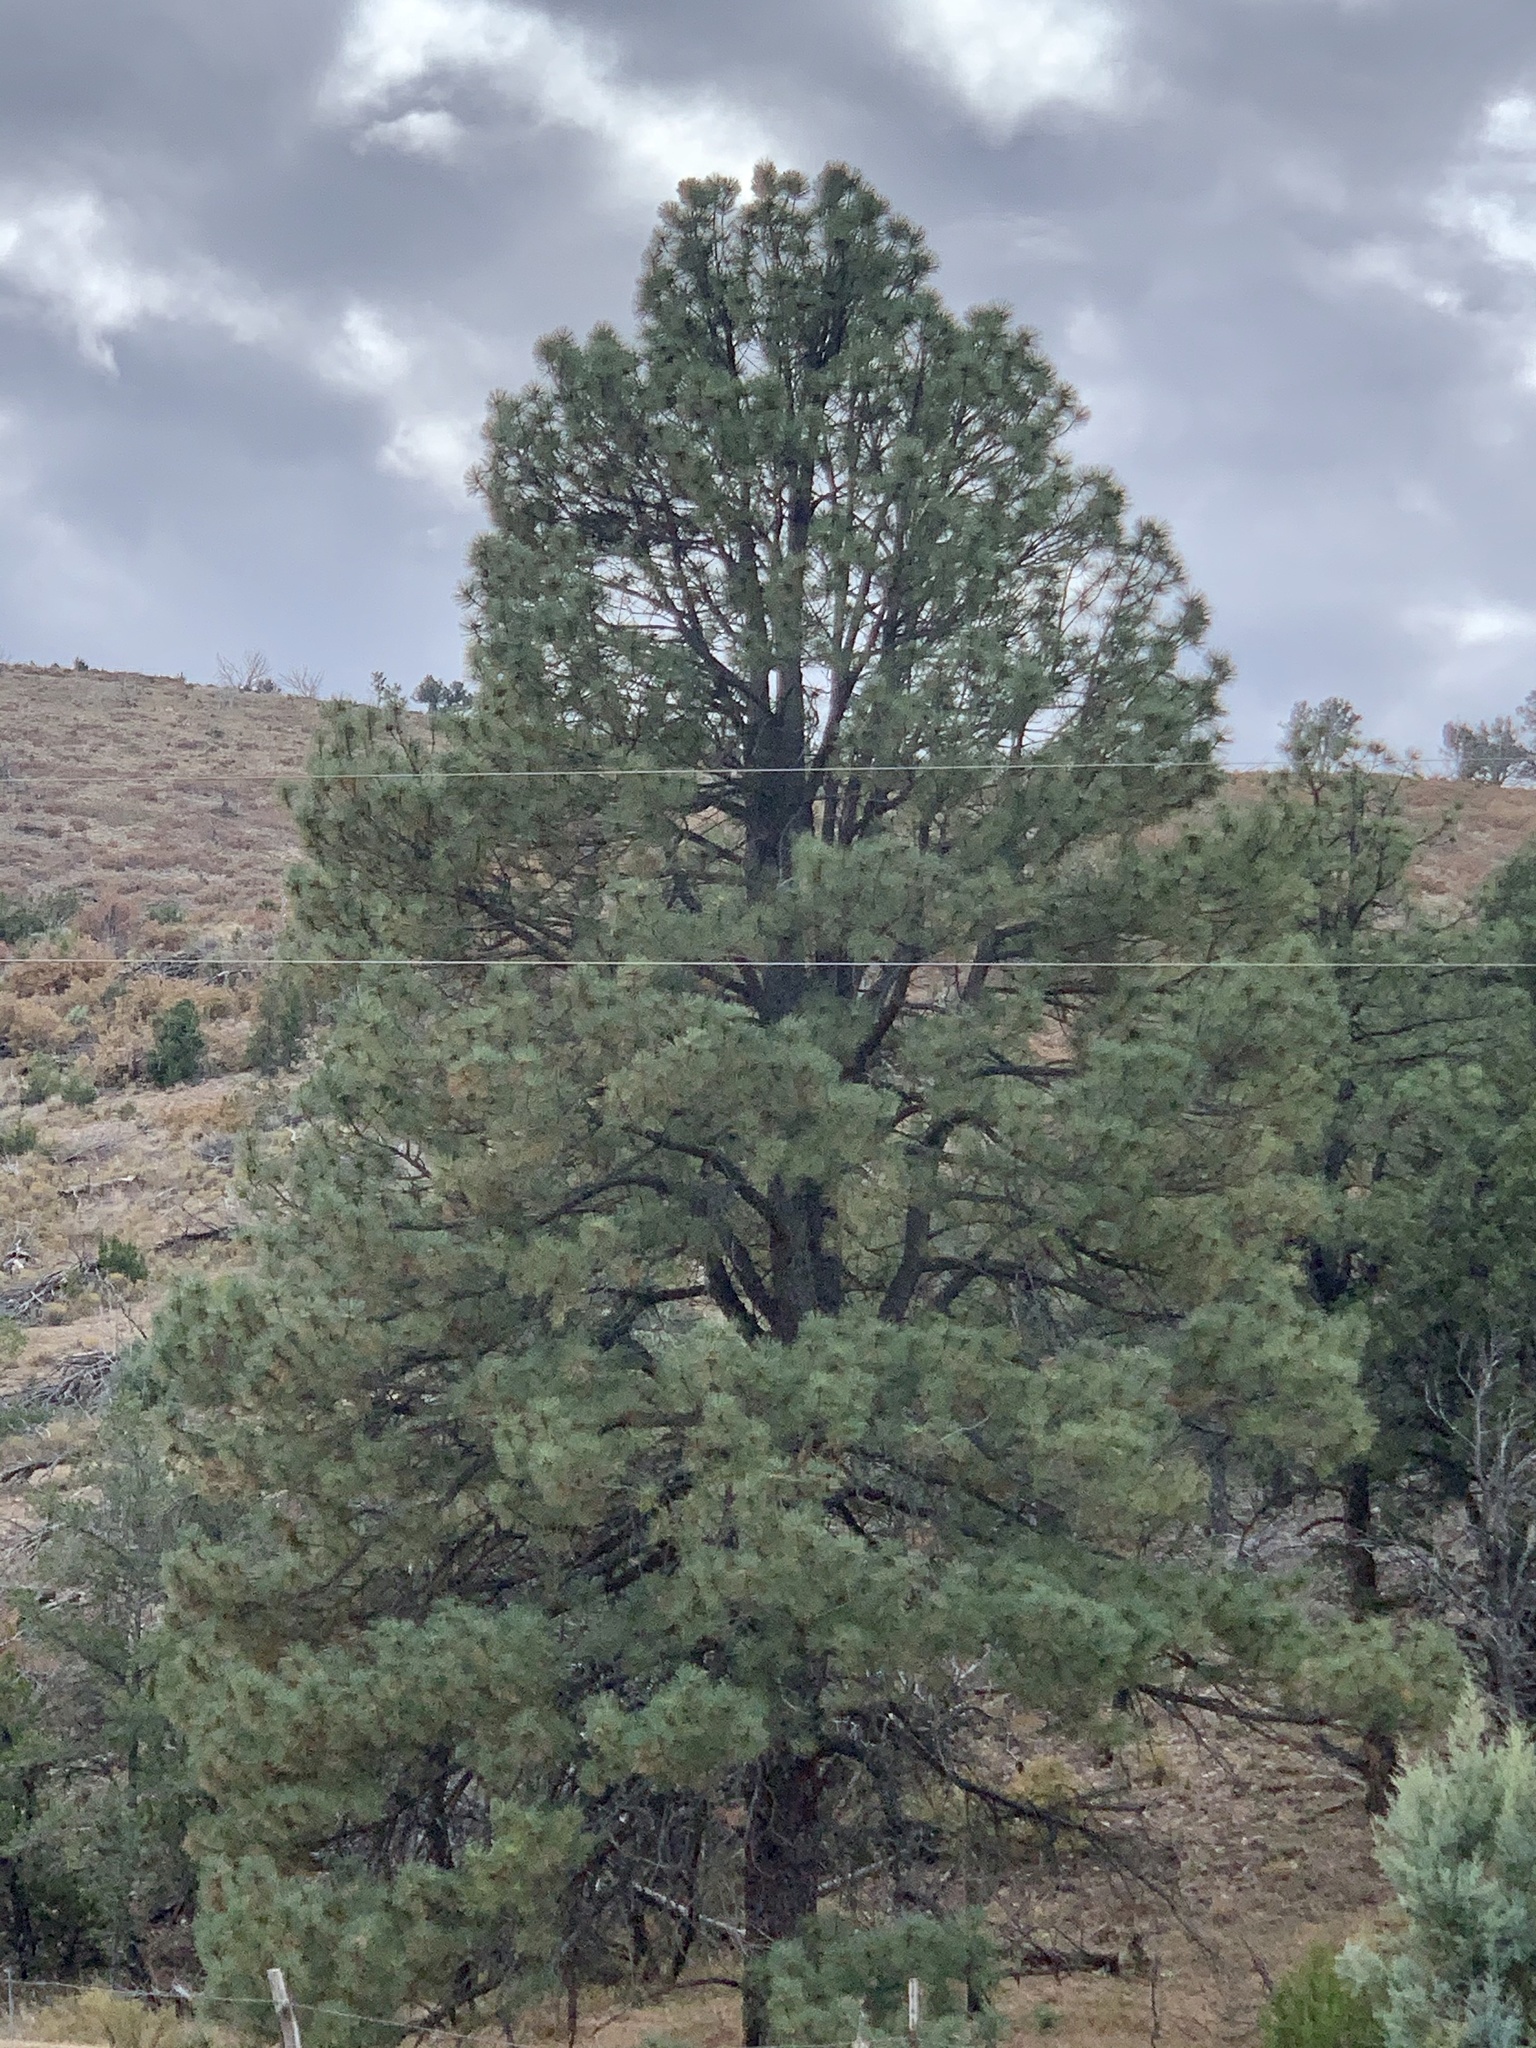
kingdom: Plantae
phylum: Tracheophyta
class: Pinopsida
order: Pinales
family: Pinaceae
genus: Pinus
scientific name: Pinus ponderosa
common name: Western yellow-pine
